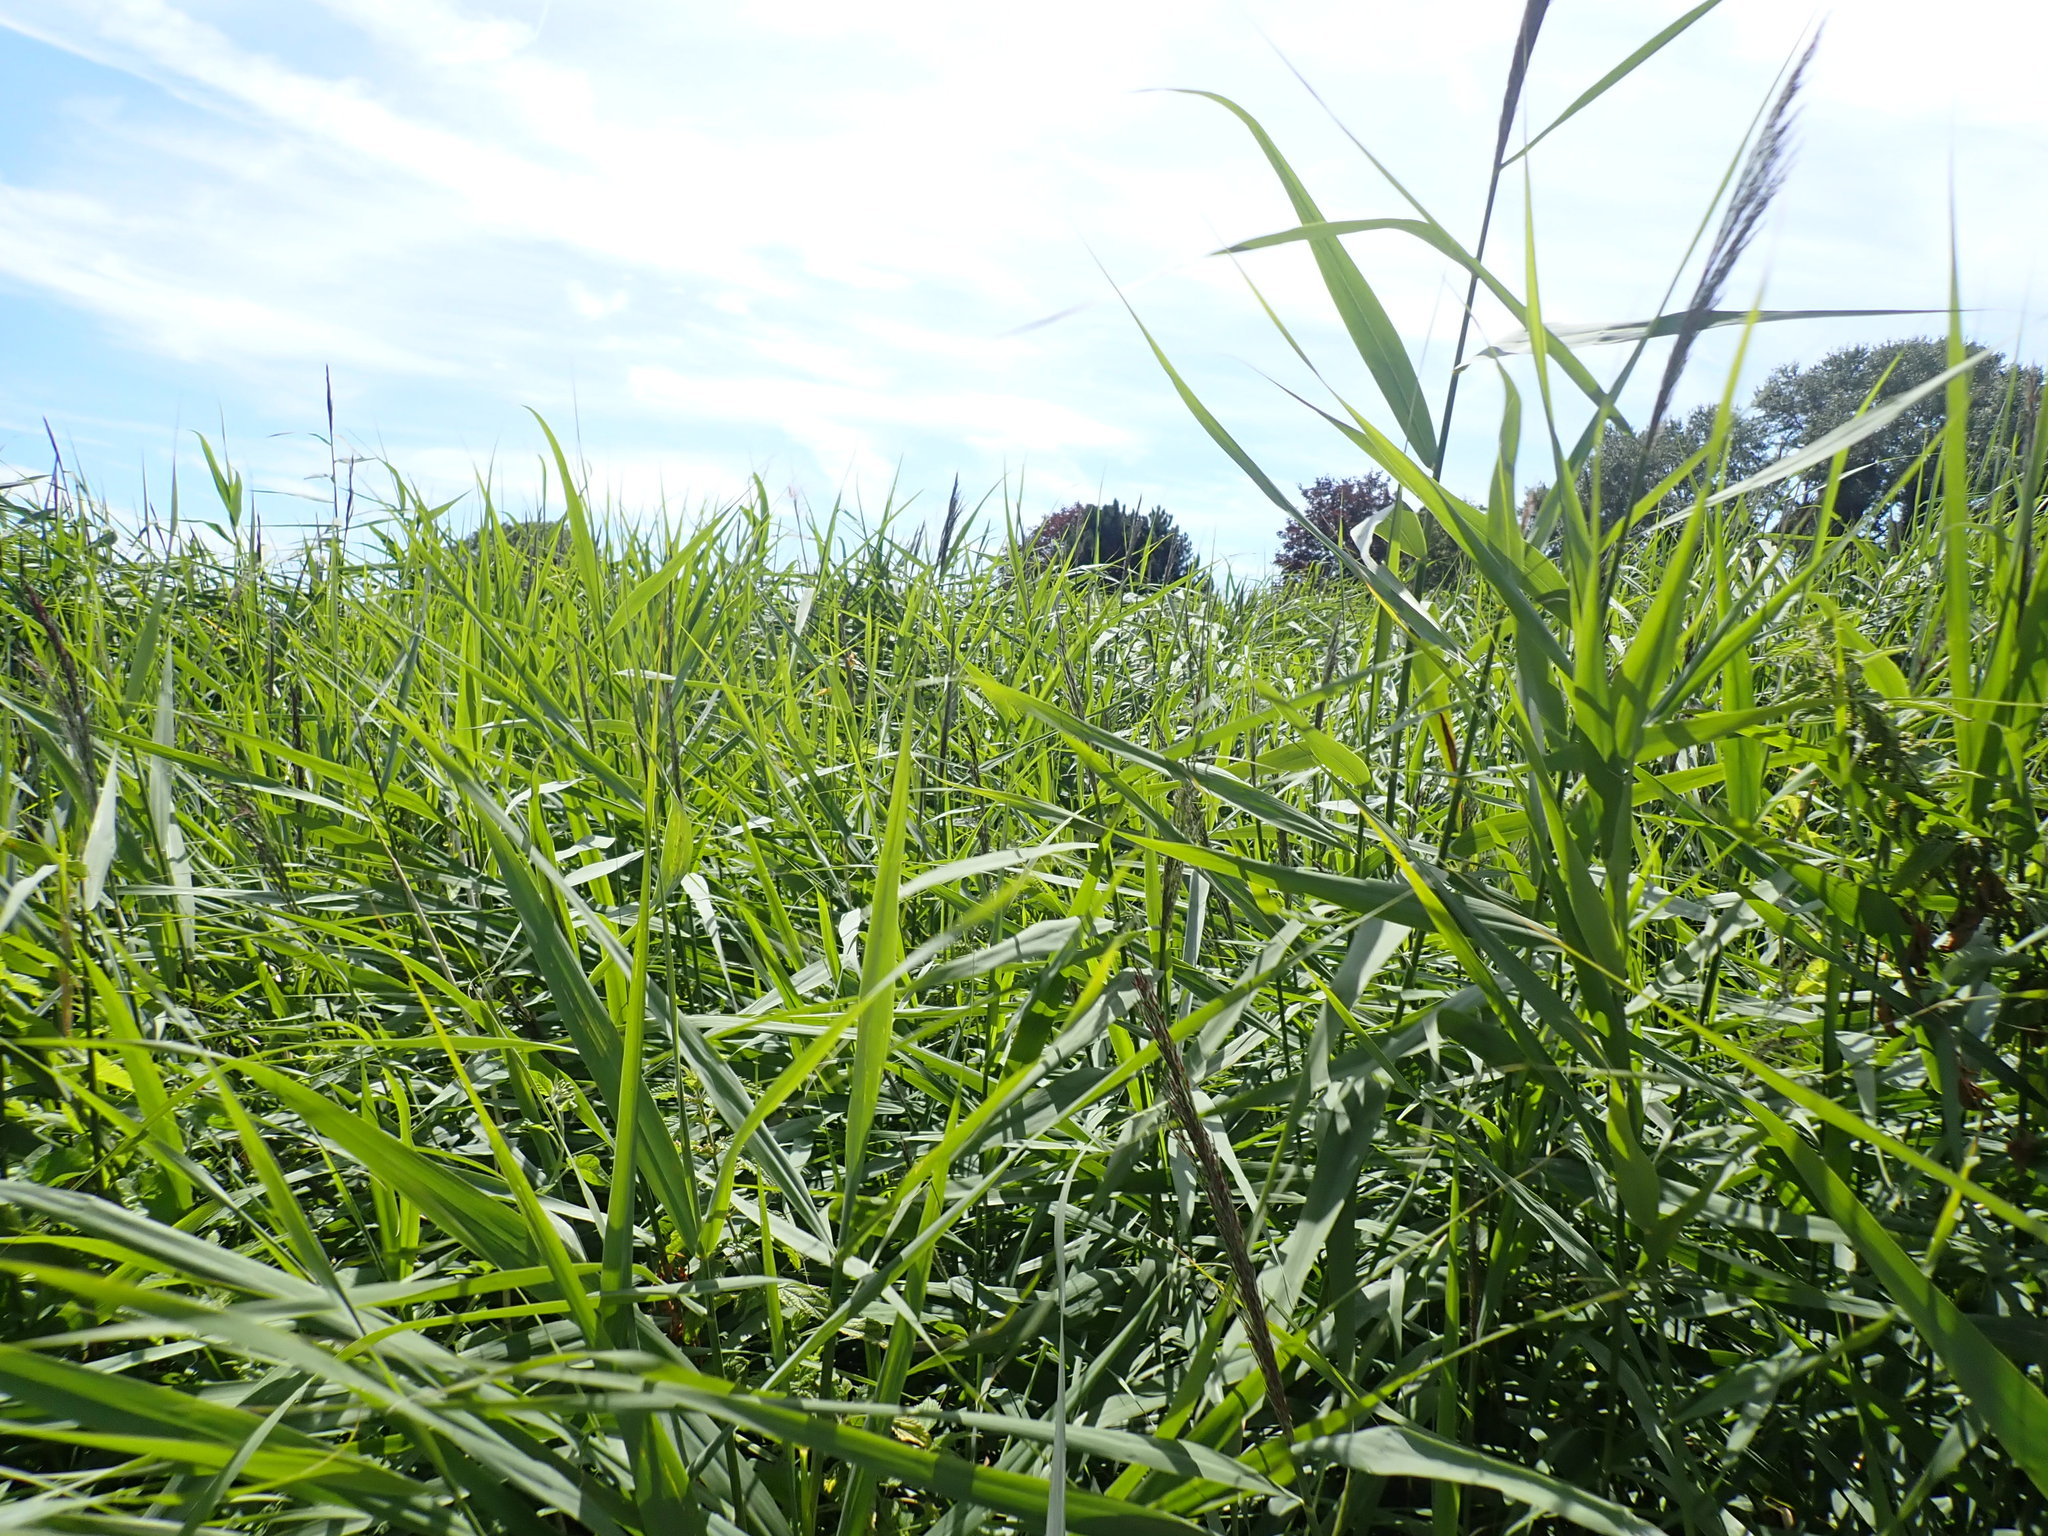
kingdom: Plantae
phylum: Tracheophyta
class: Liliopsida
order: Poales
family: Poaceae
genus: Phragmites
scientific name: Phragmites australis
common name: Common reed
